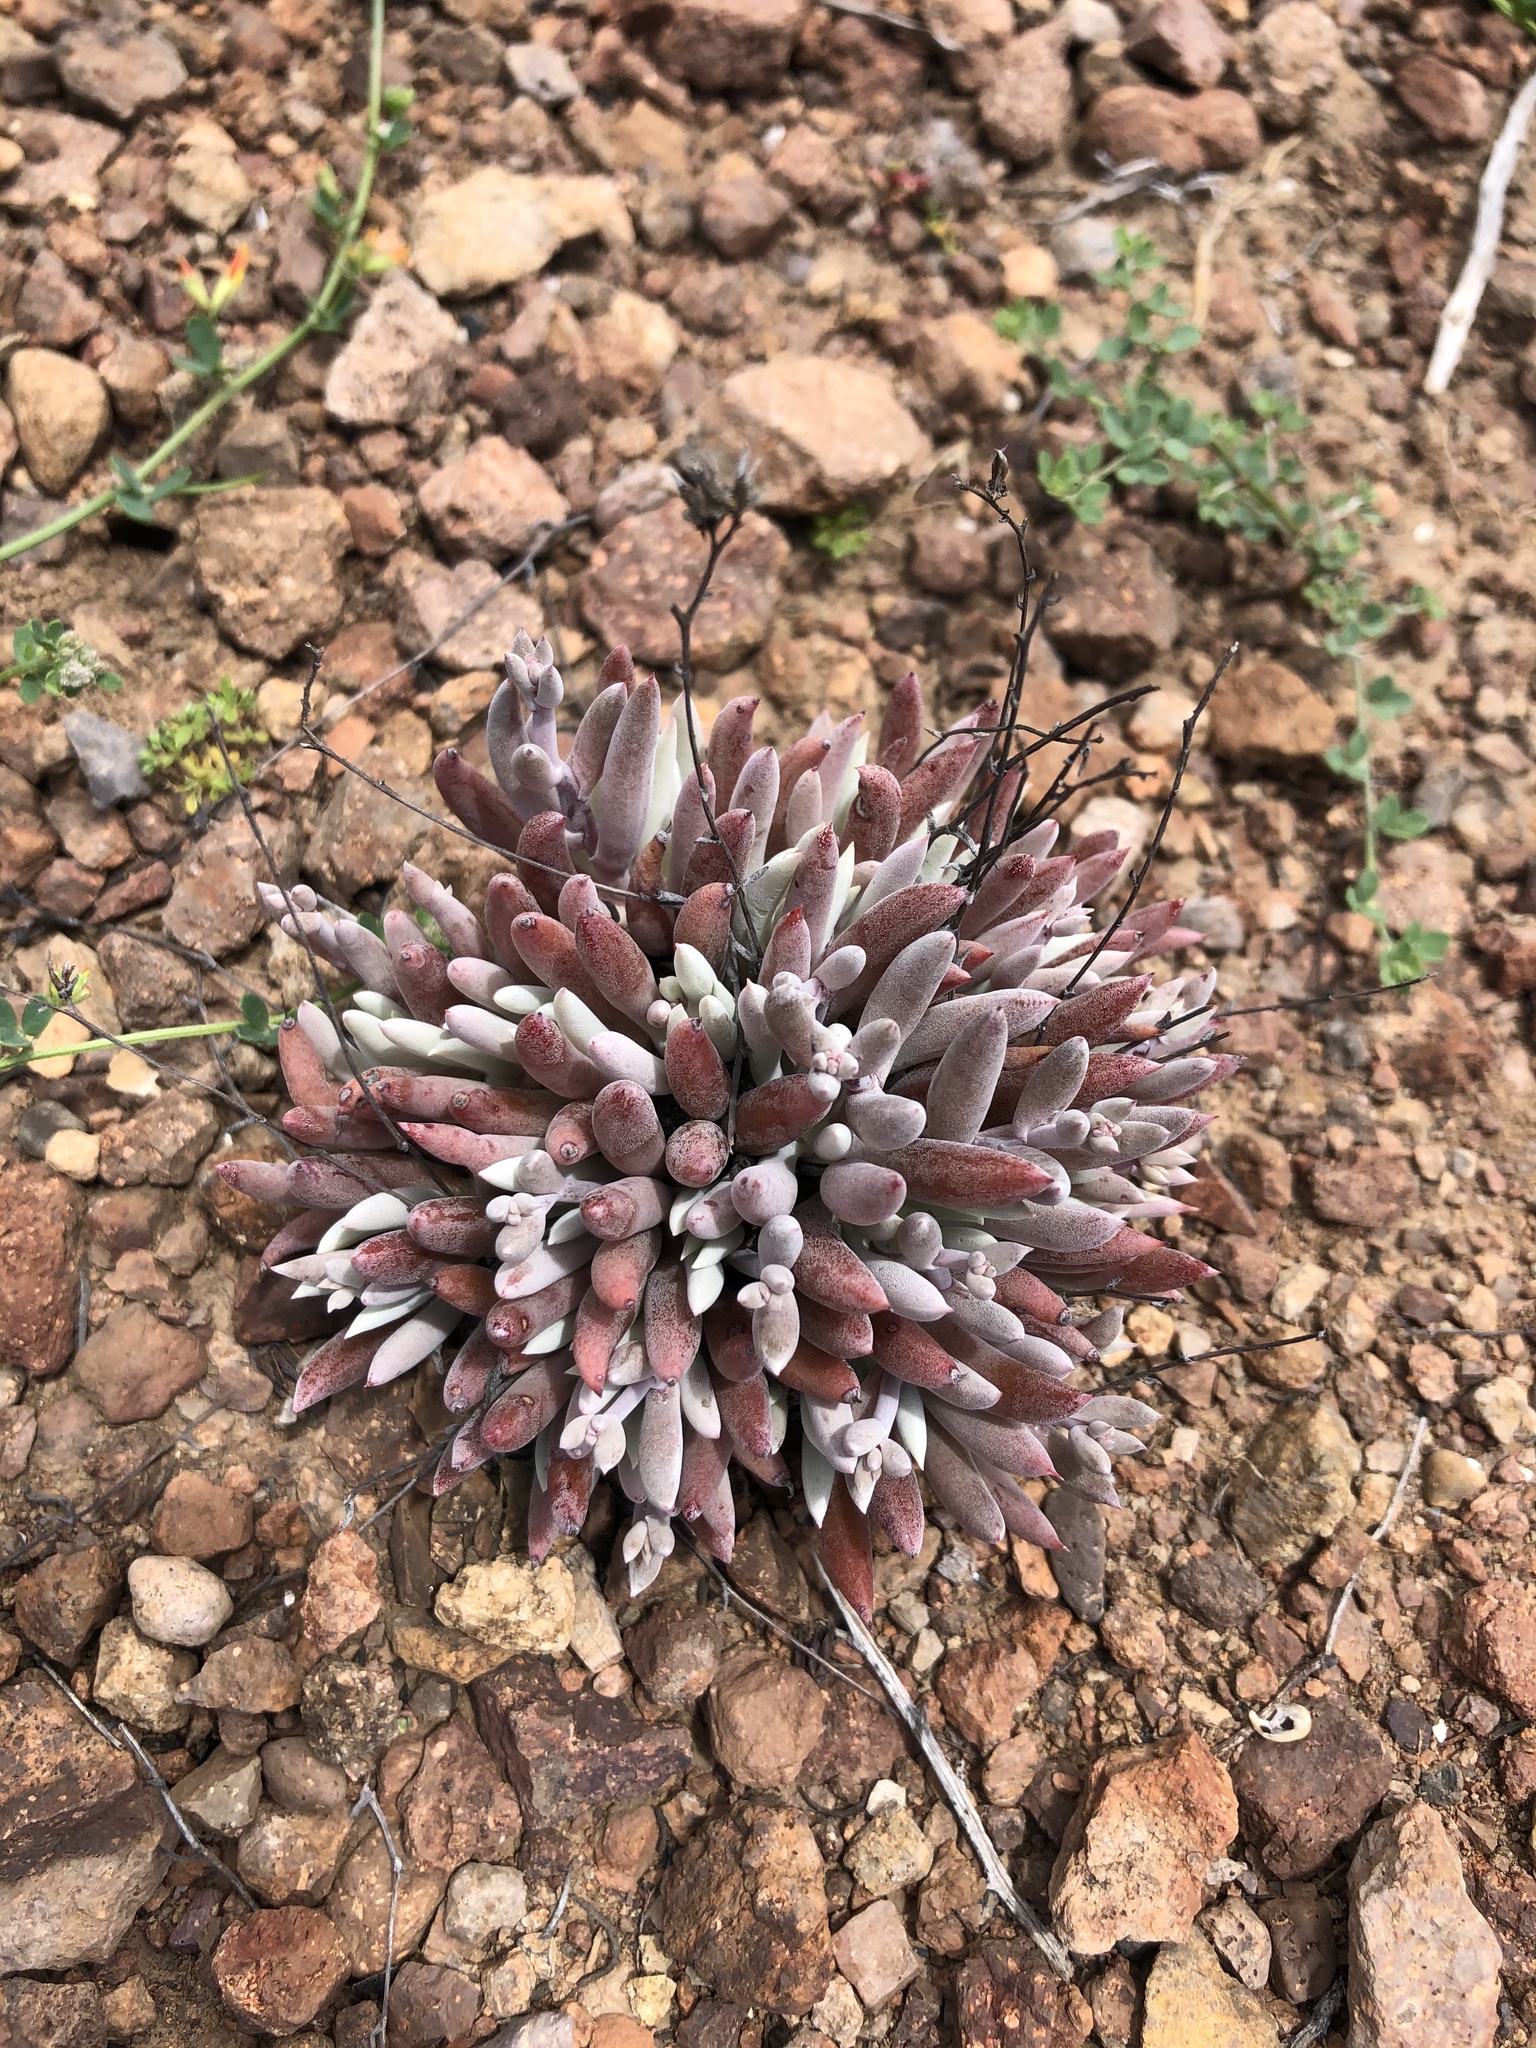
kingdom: Plantae
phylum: Tracheophyta
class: Magnoliopsida
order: Saxifragales
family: Crassulaceae
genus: Dudleya
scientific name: Dudleya attenuata
